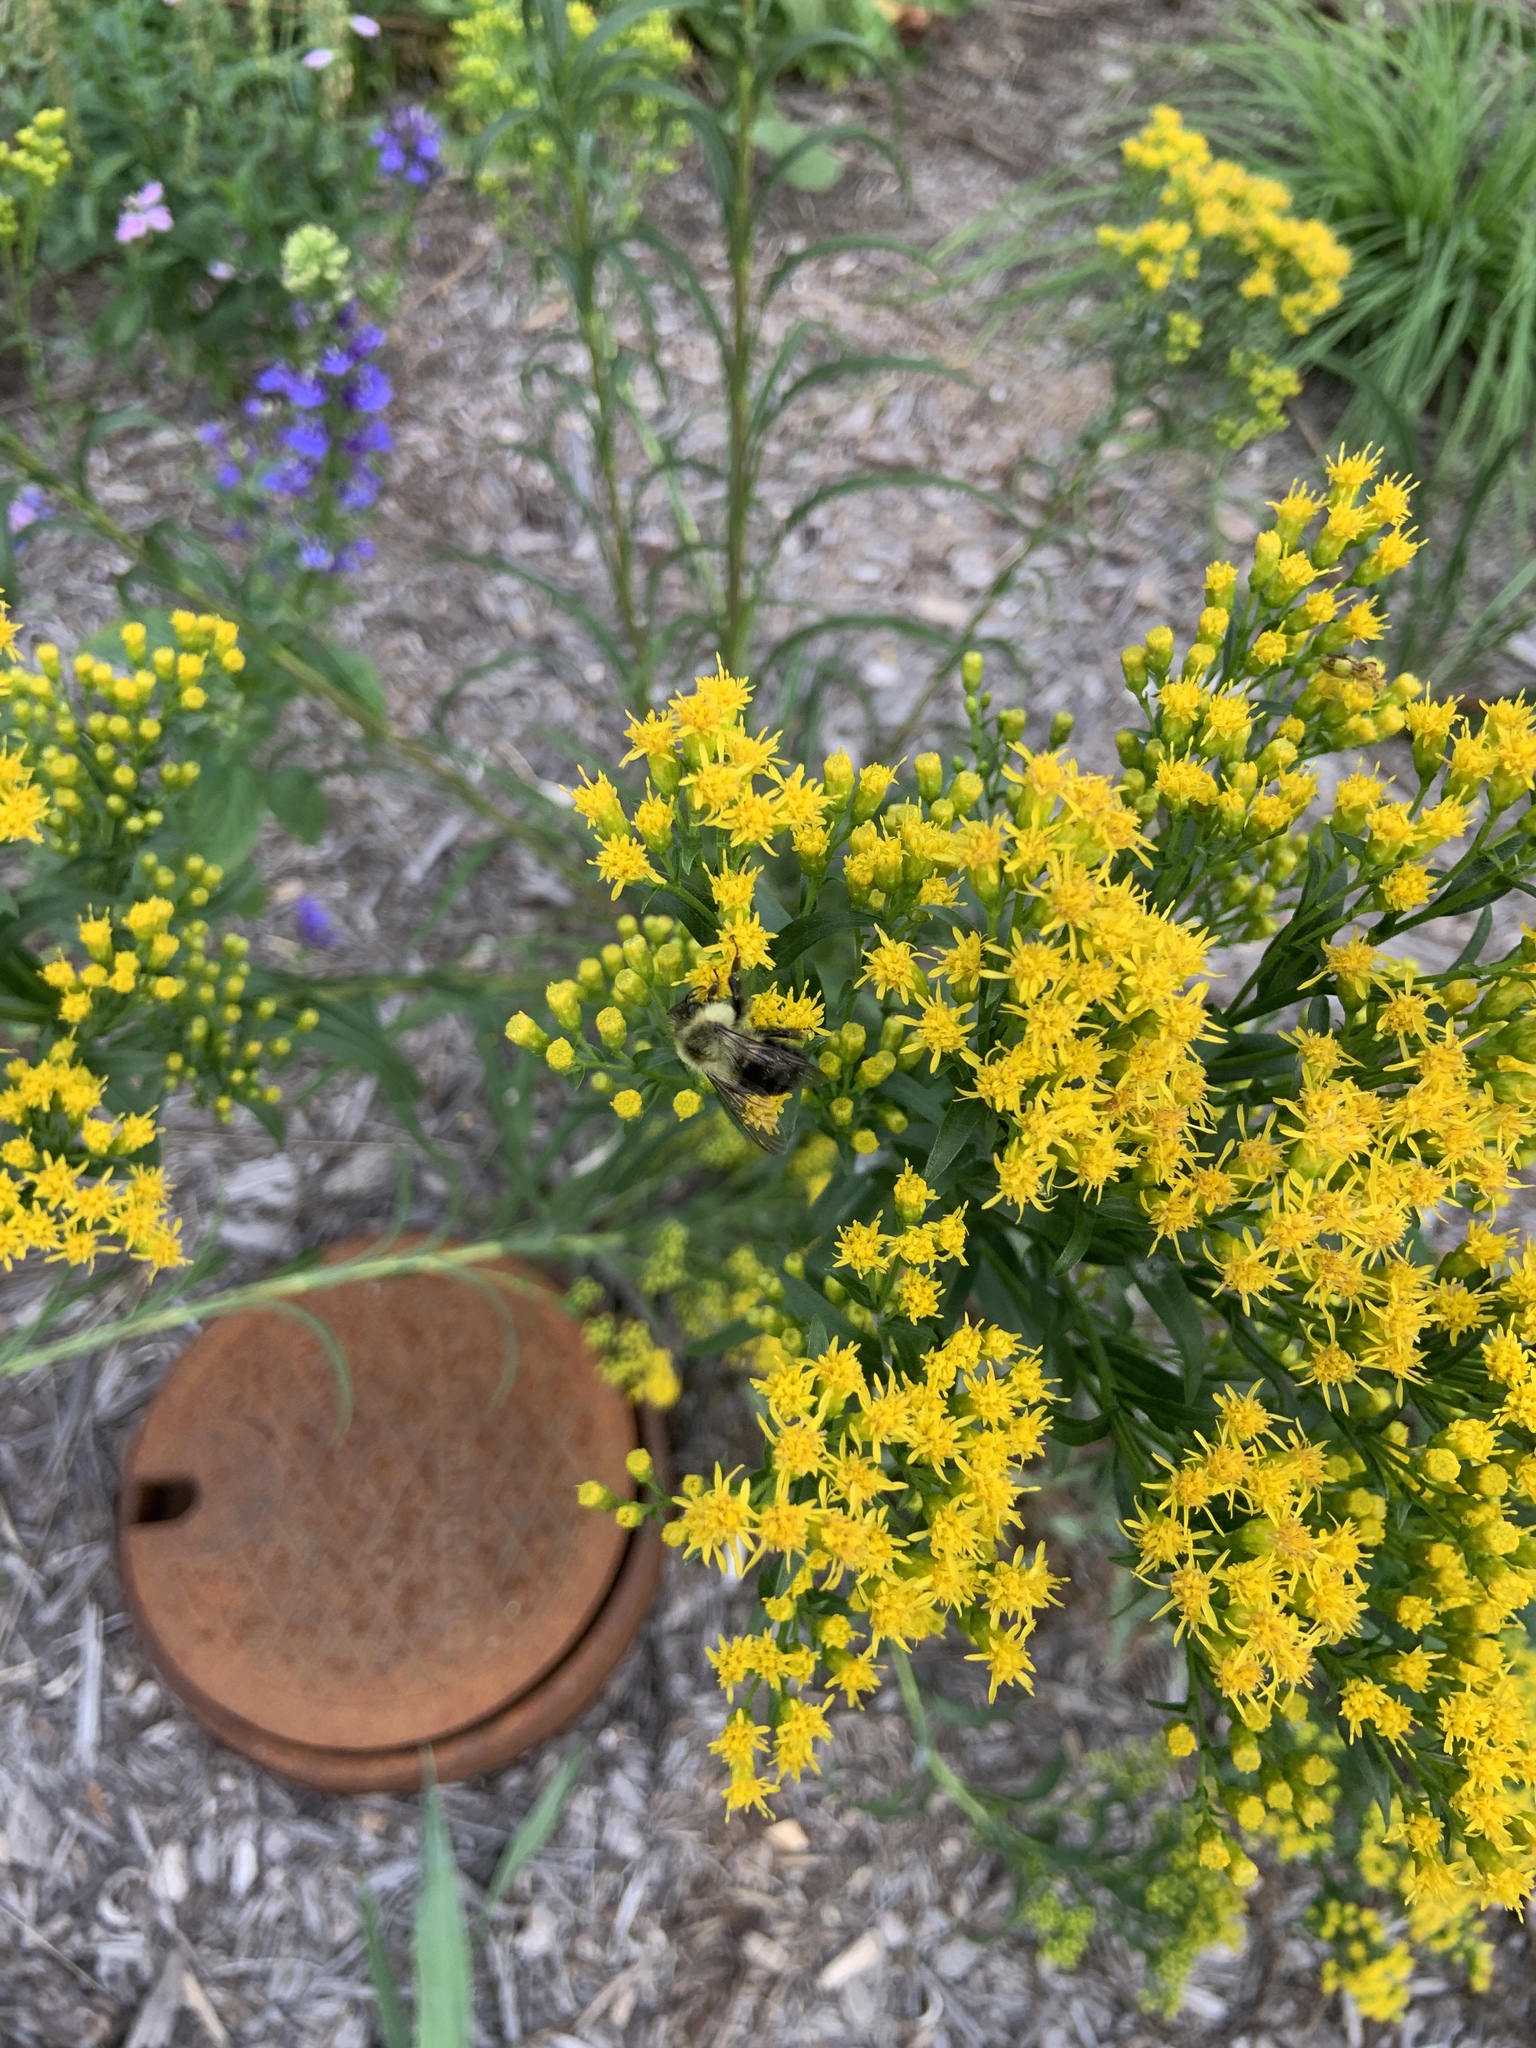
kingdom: Animalia
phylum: Arthropoda
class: Insecta
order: Hymenoptera
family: Apidae
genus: Bombus
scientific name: Bombus impatiens
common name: Common eastern bumble bee
